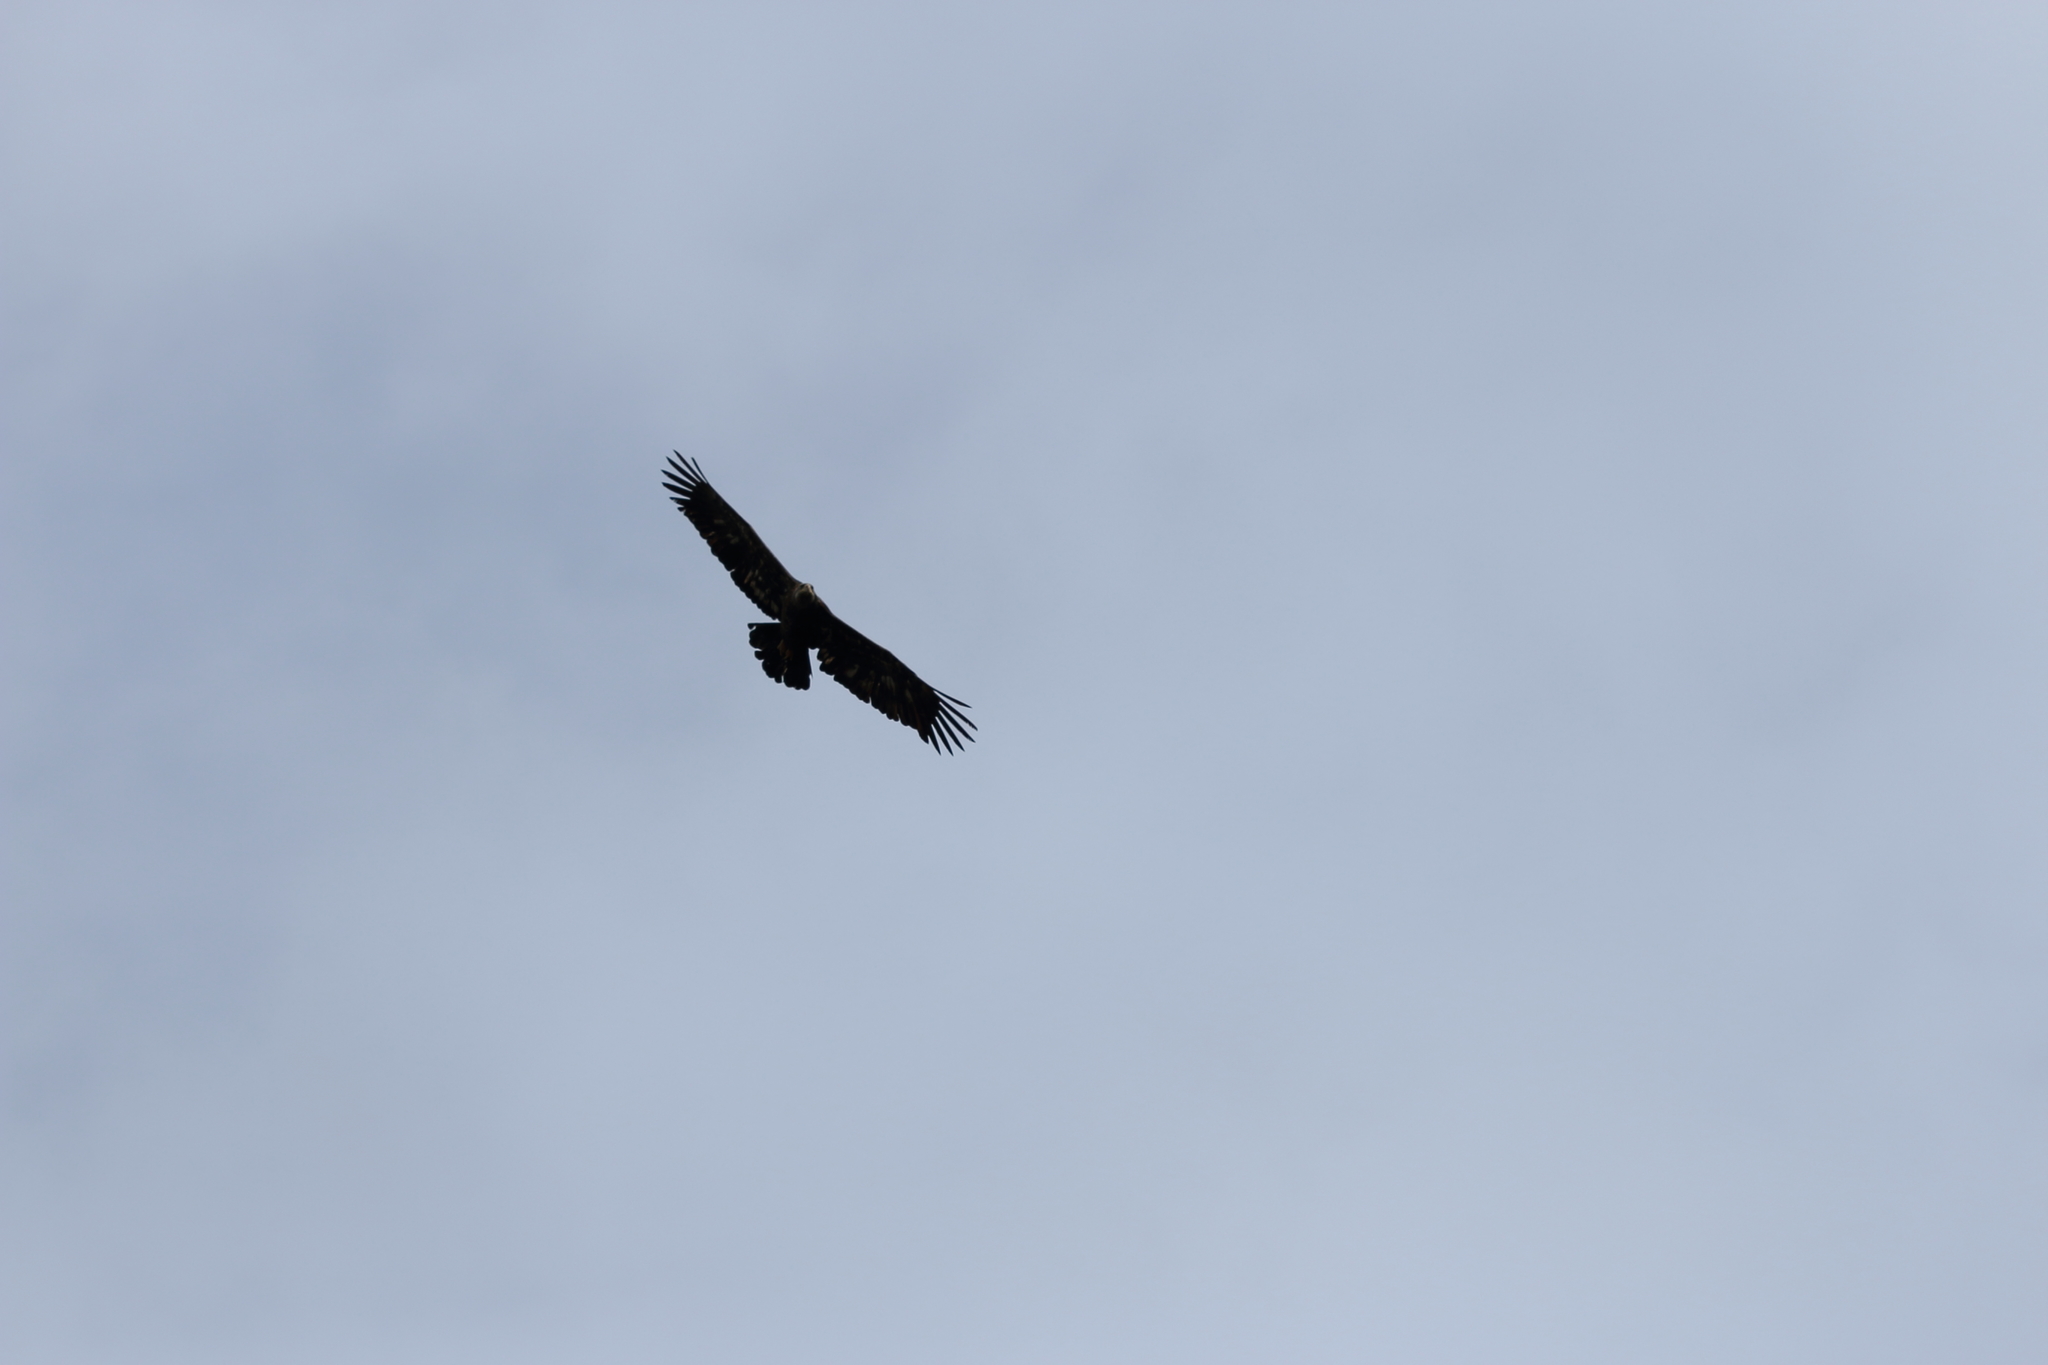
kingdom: Animalia
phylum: Chordata
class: Aves
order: Accipitriformes
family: Accipitridae
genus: Haliaeetus
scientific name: Haliaeetus leucocephalus
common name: Bald eagle
